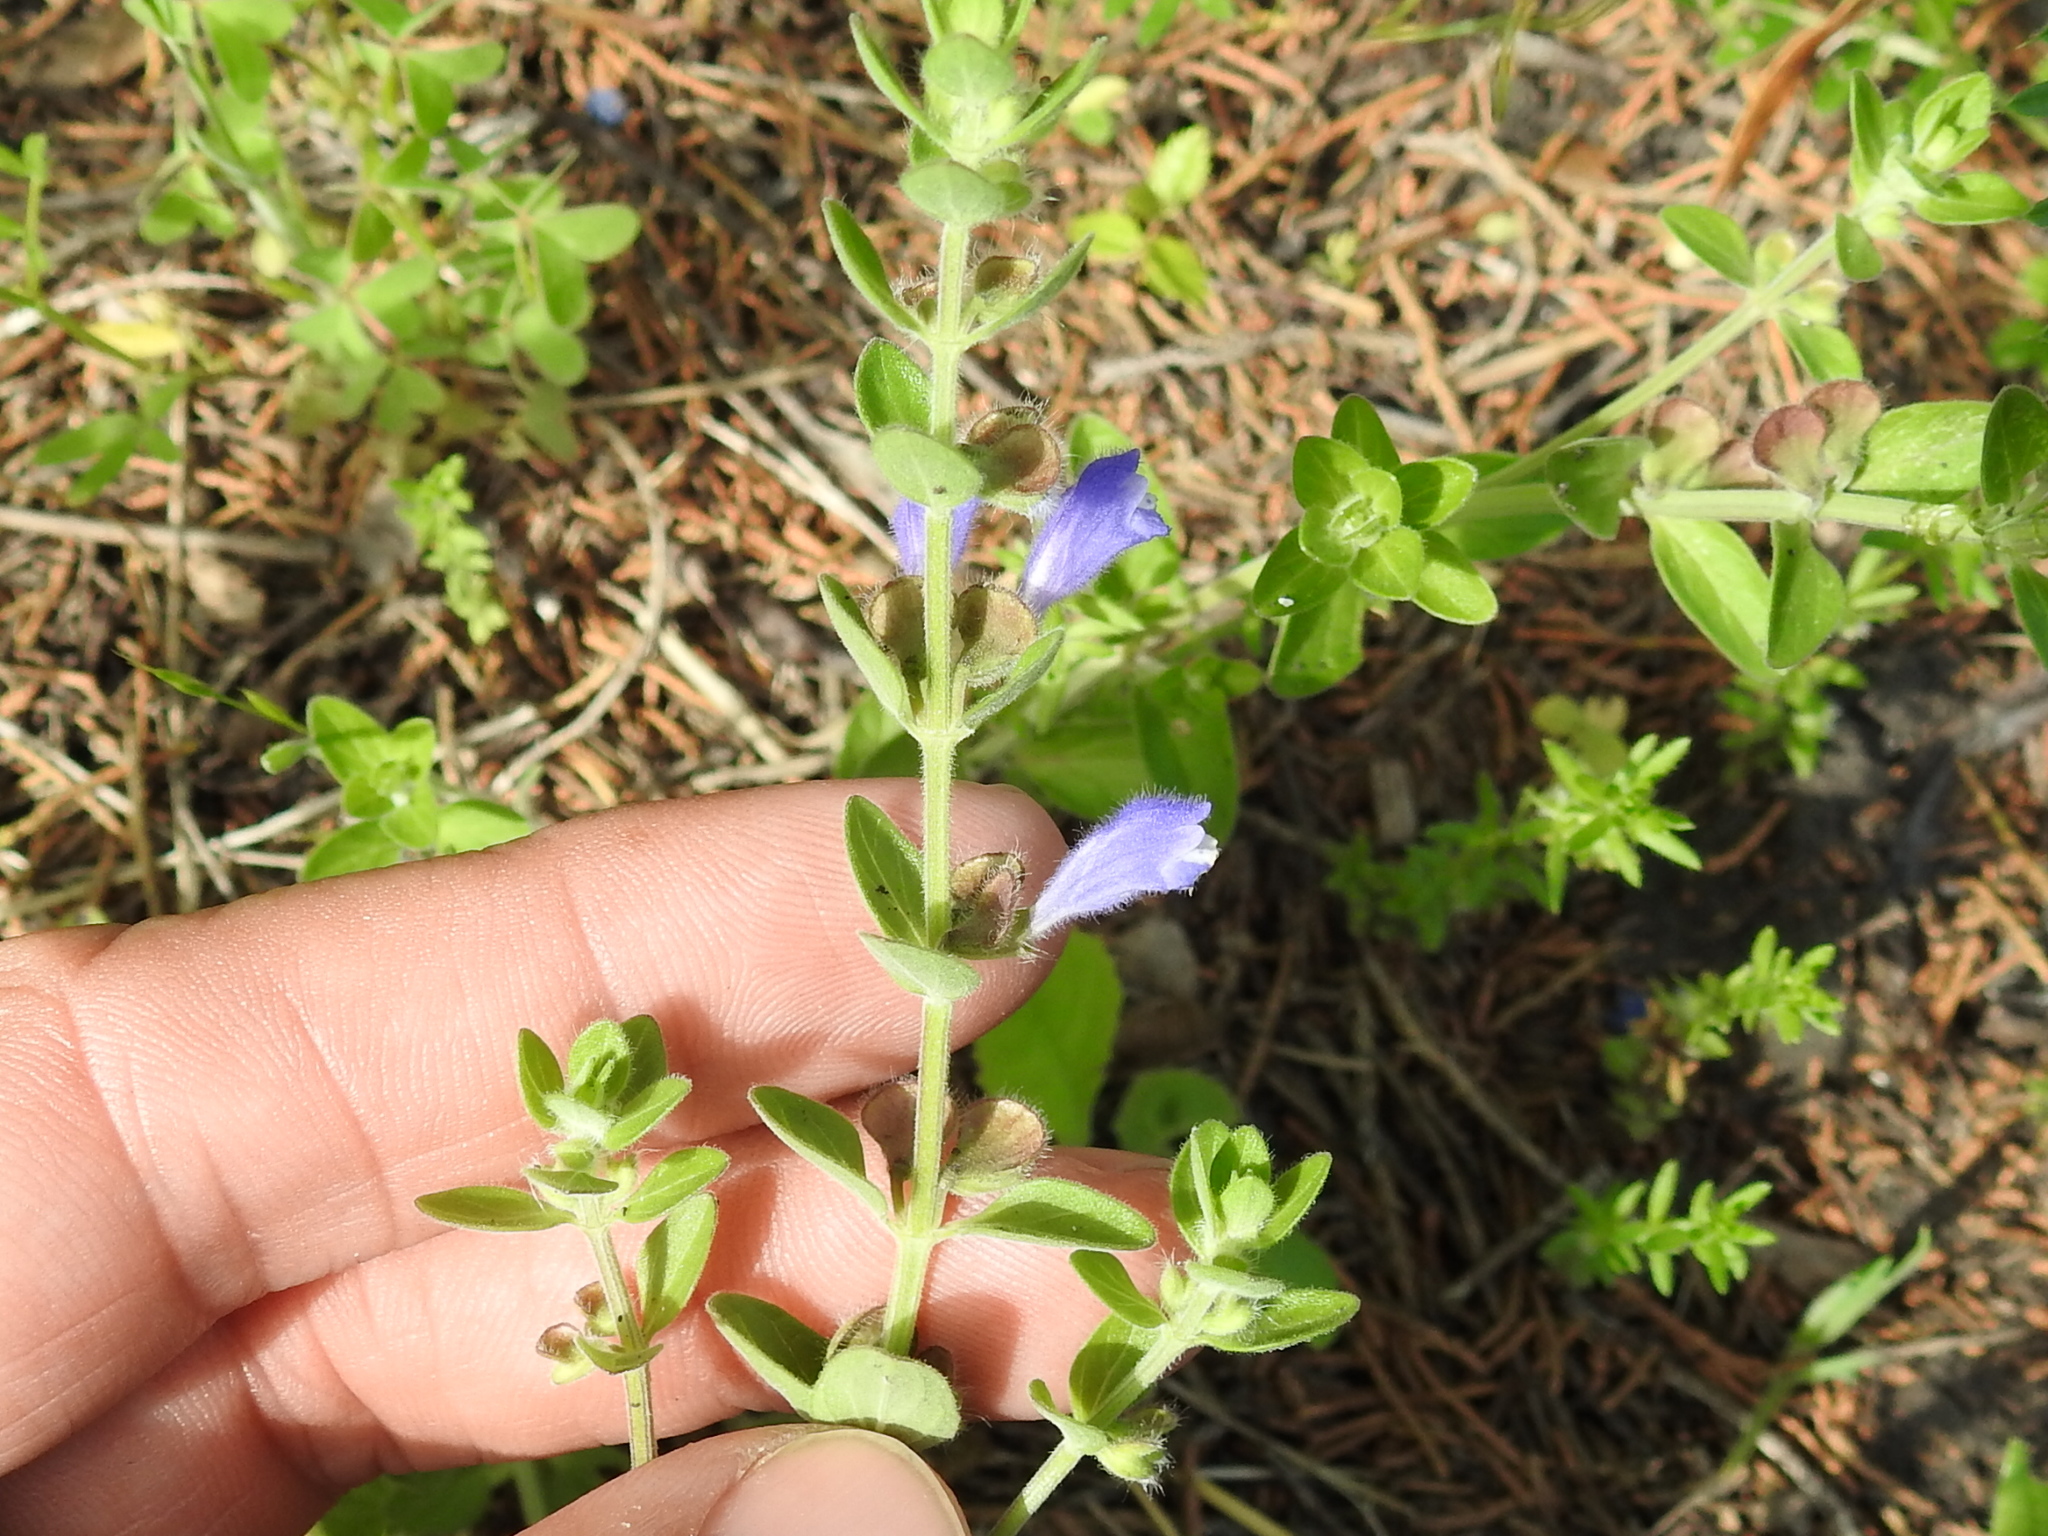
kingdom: Plantae
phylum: Tracheophyta
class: Magnoliopsida
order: Lamiales
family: Lamiaceae
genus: Scutellaria
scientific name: Scutellaria drummondii
